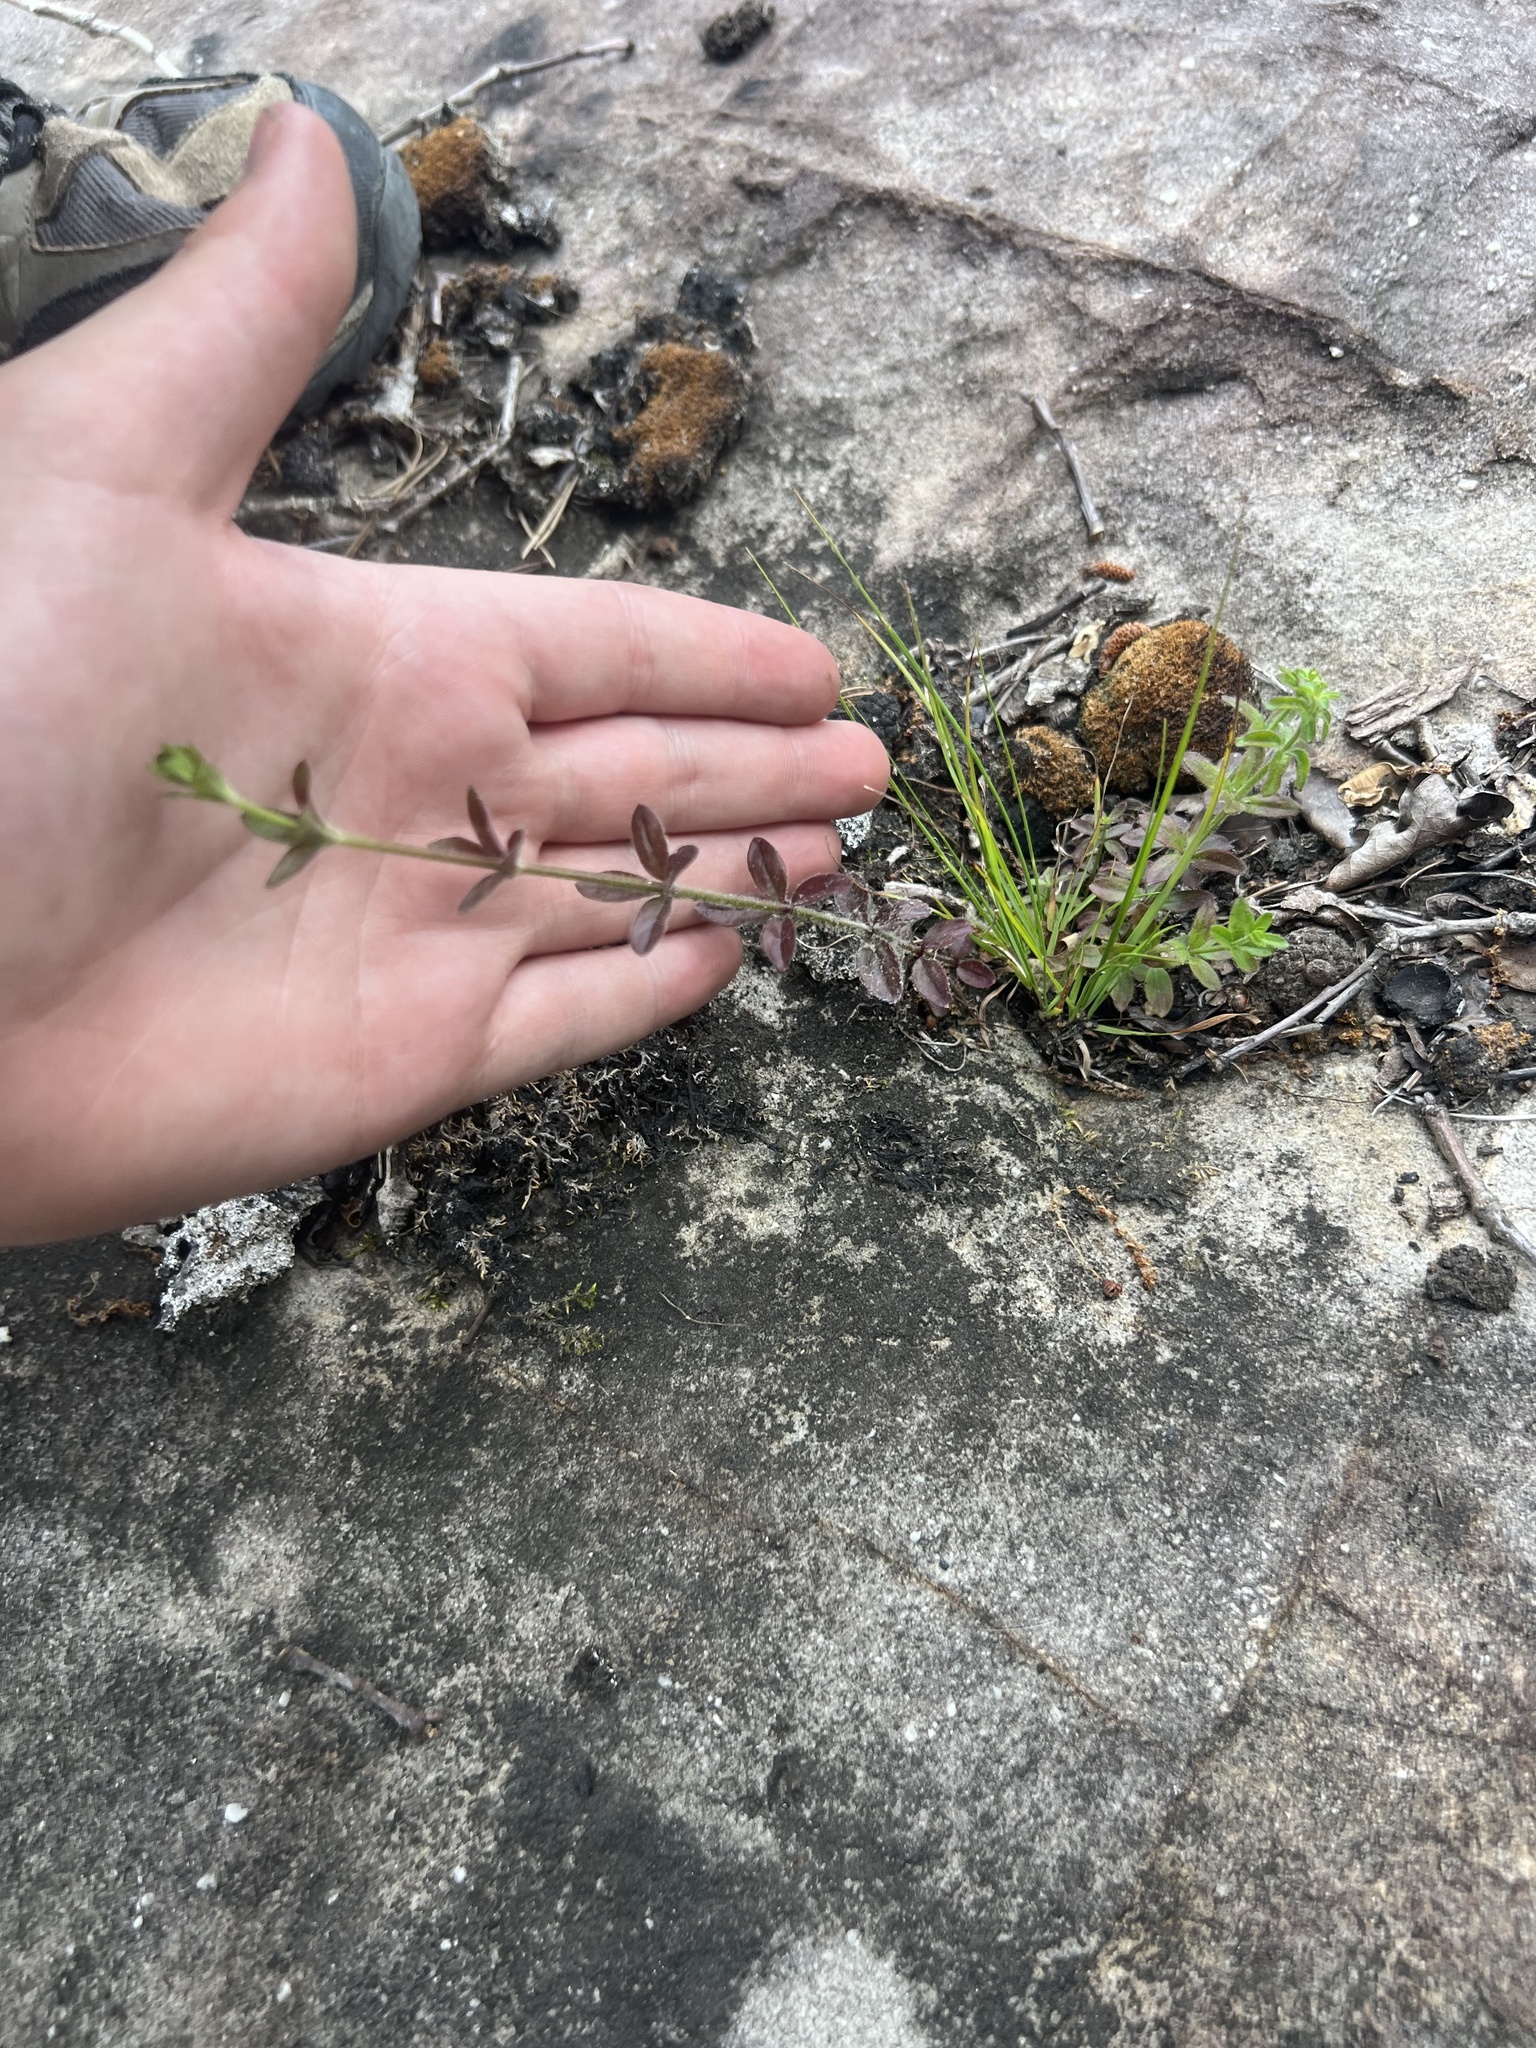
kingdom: Plantae
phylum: Tracheophyta
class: Magnoliopsida
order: Gentianales
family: Rubiaceae
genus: Galium
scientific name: Galium pilosum
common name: Hairy bedstraw
